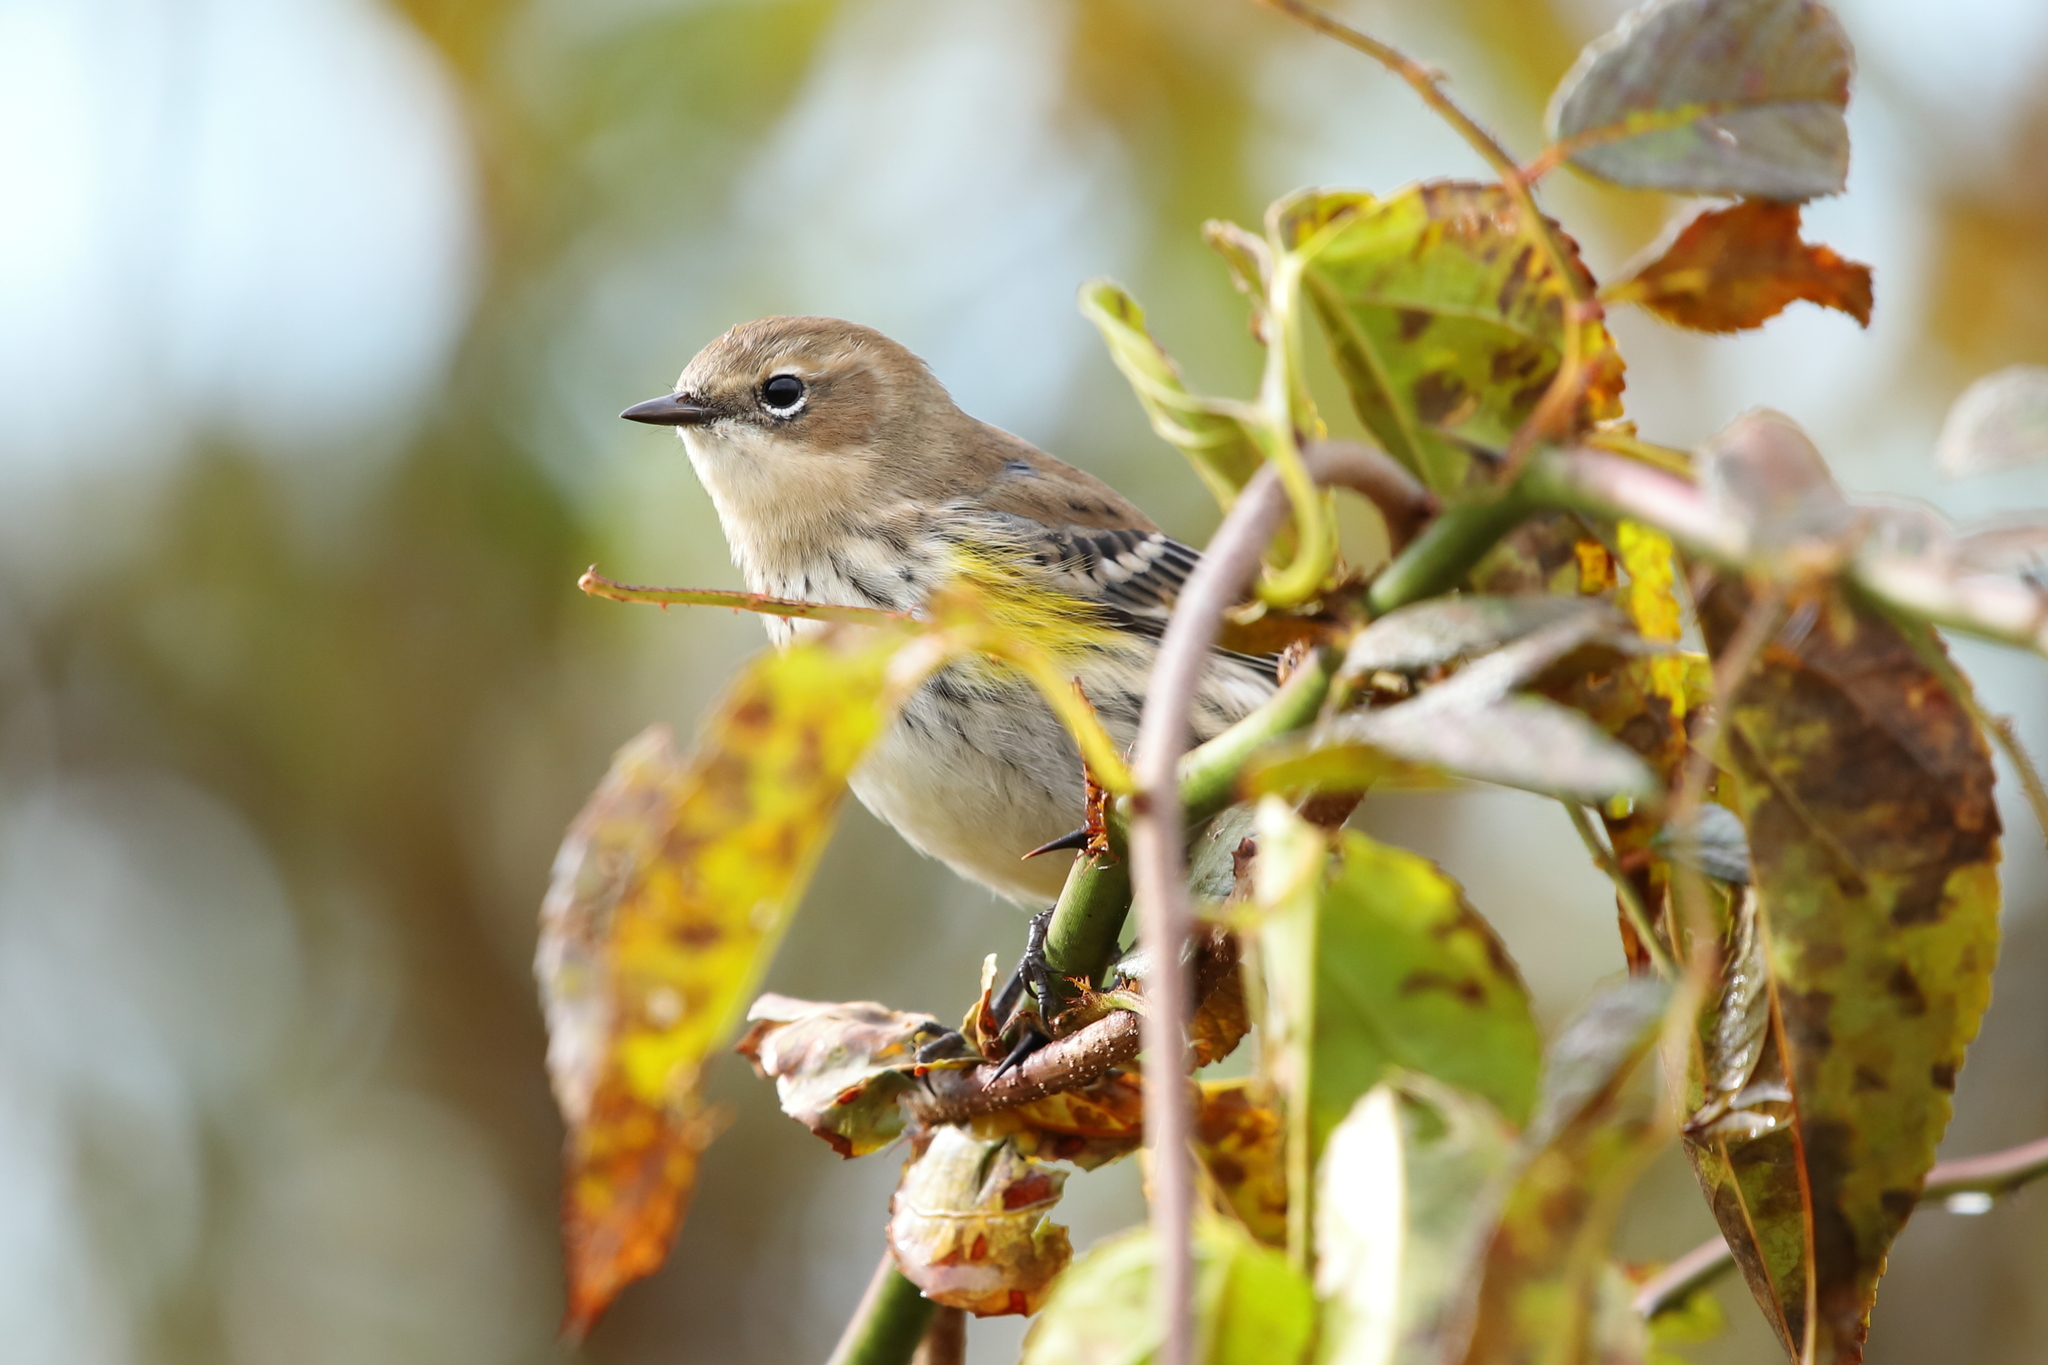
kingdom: Animalia
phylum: Chordata
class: Aves
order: Passeriformes
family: Parulidae
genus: Setophaga
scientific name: Setophaga coronata
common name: Myrtle warbler
